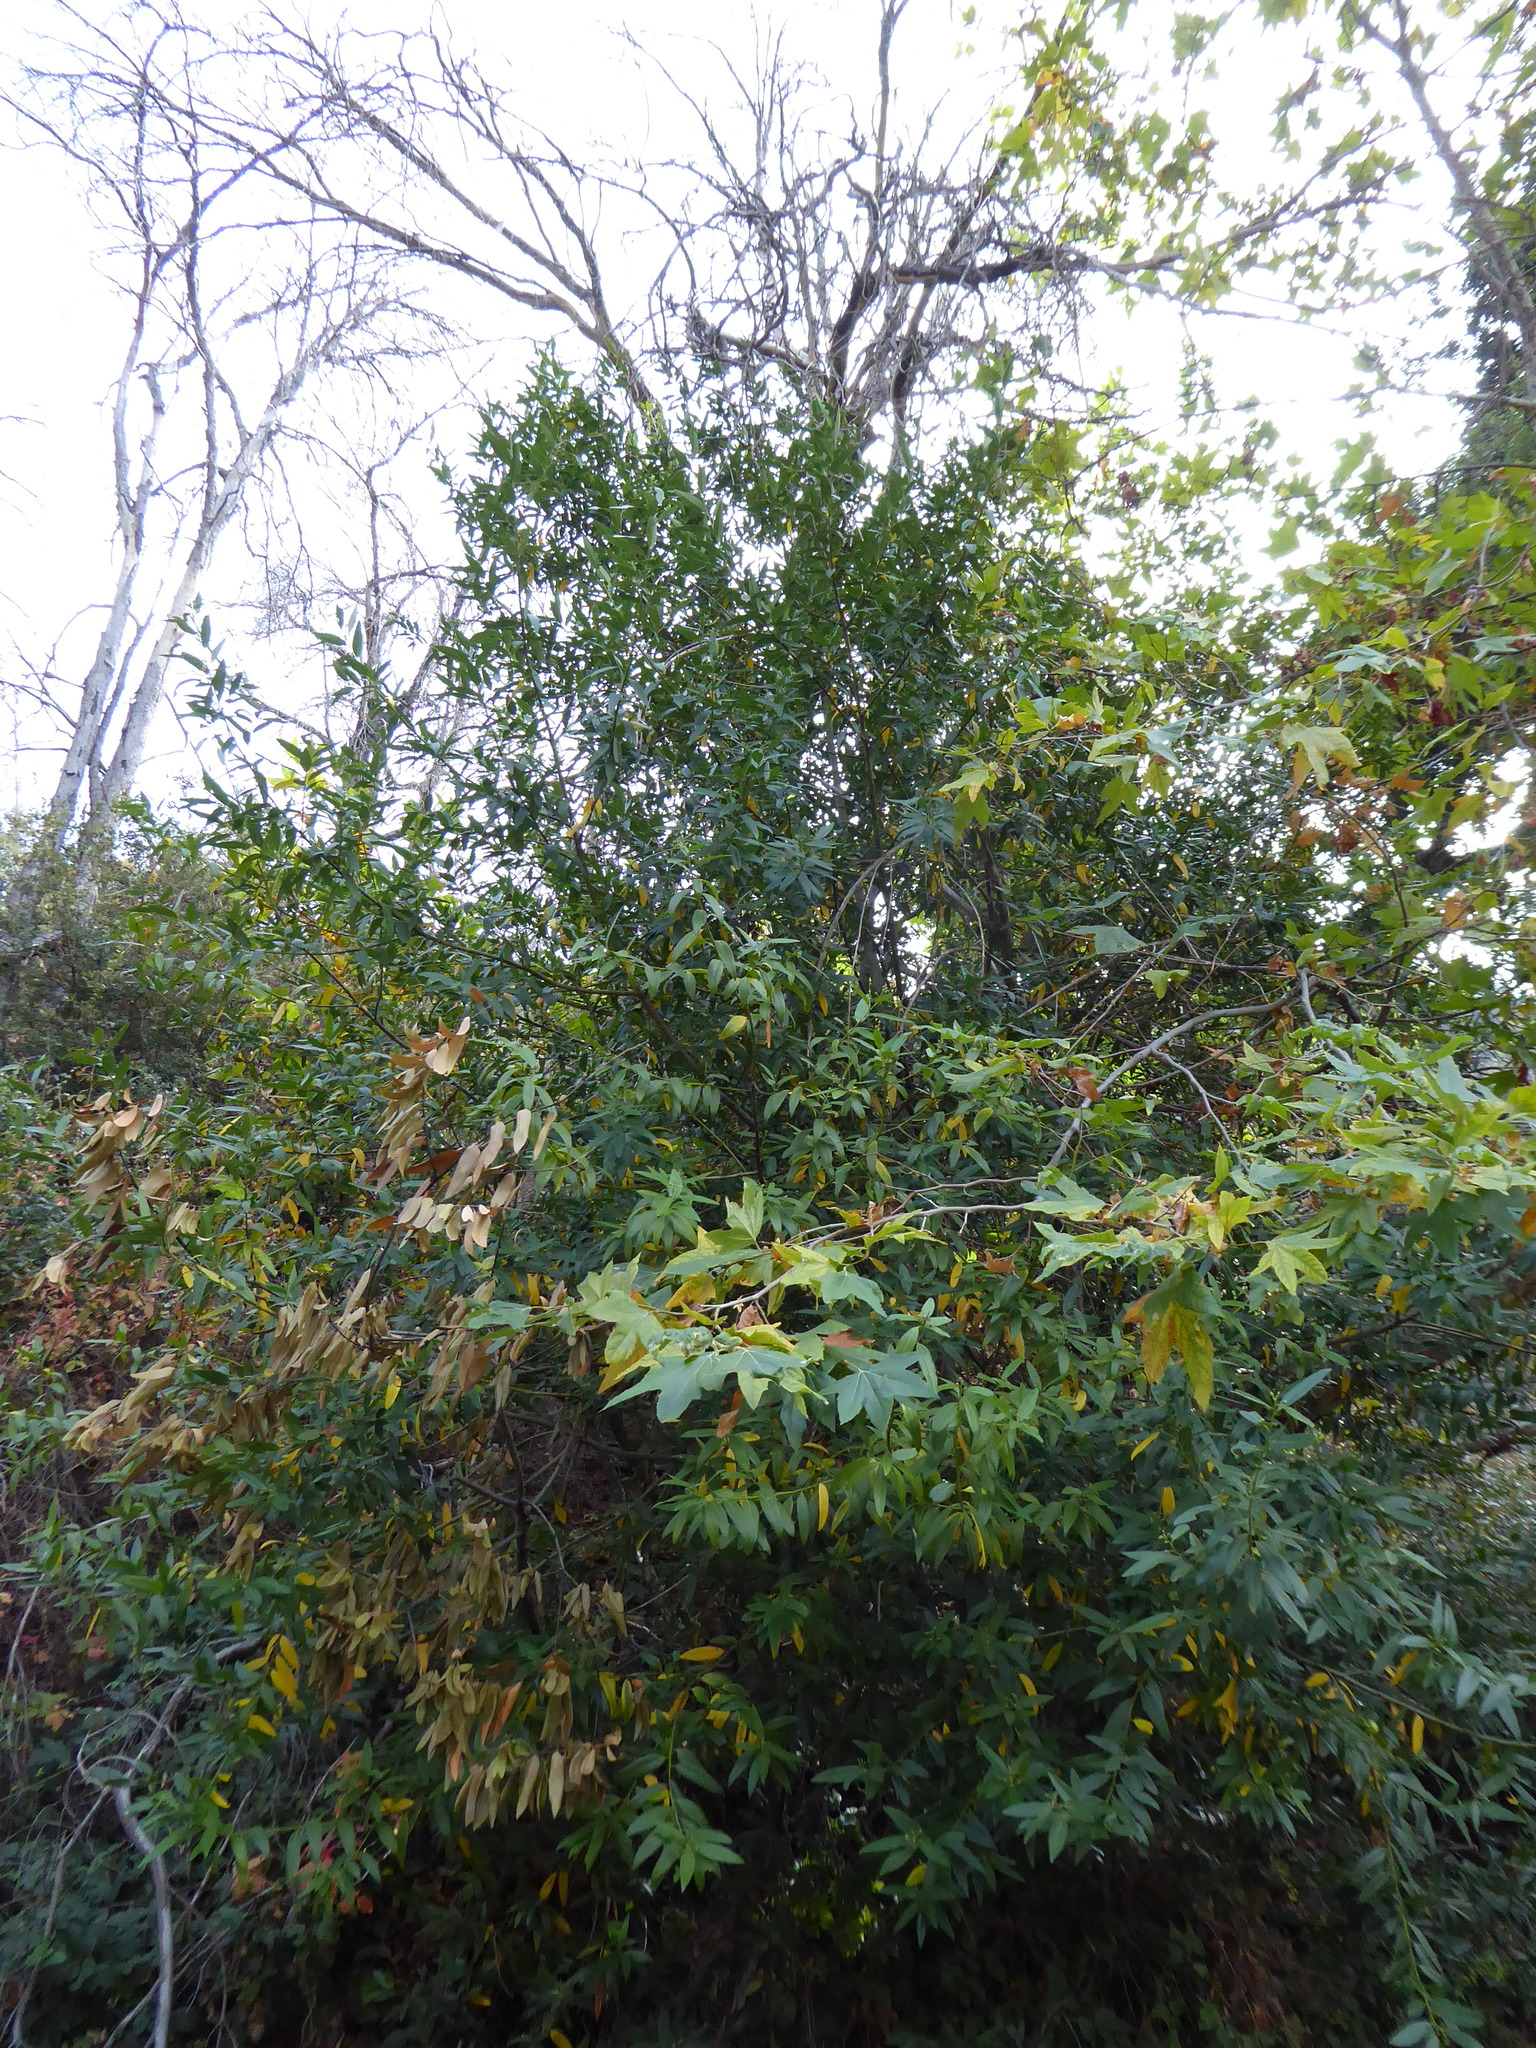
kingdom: Plantae
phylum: Tracheophyta
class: Magnoliopsida
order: Laurales
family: Lauraceae
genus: Umbellularia
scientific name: Umbellularia californica
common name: California bay
